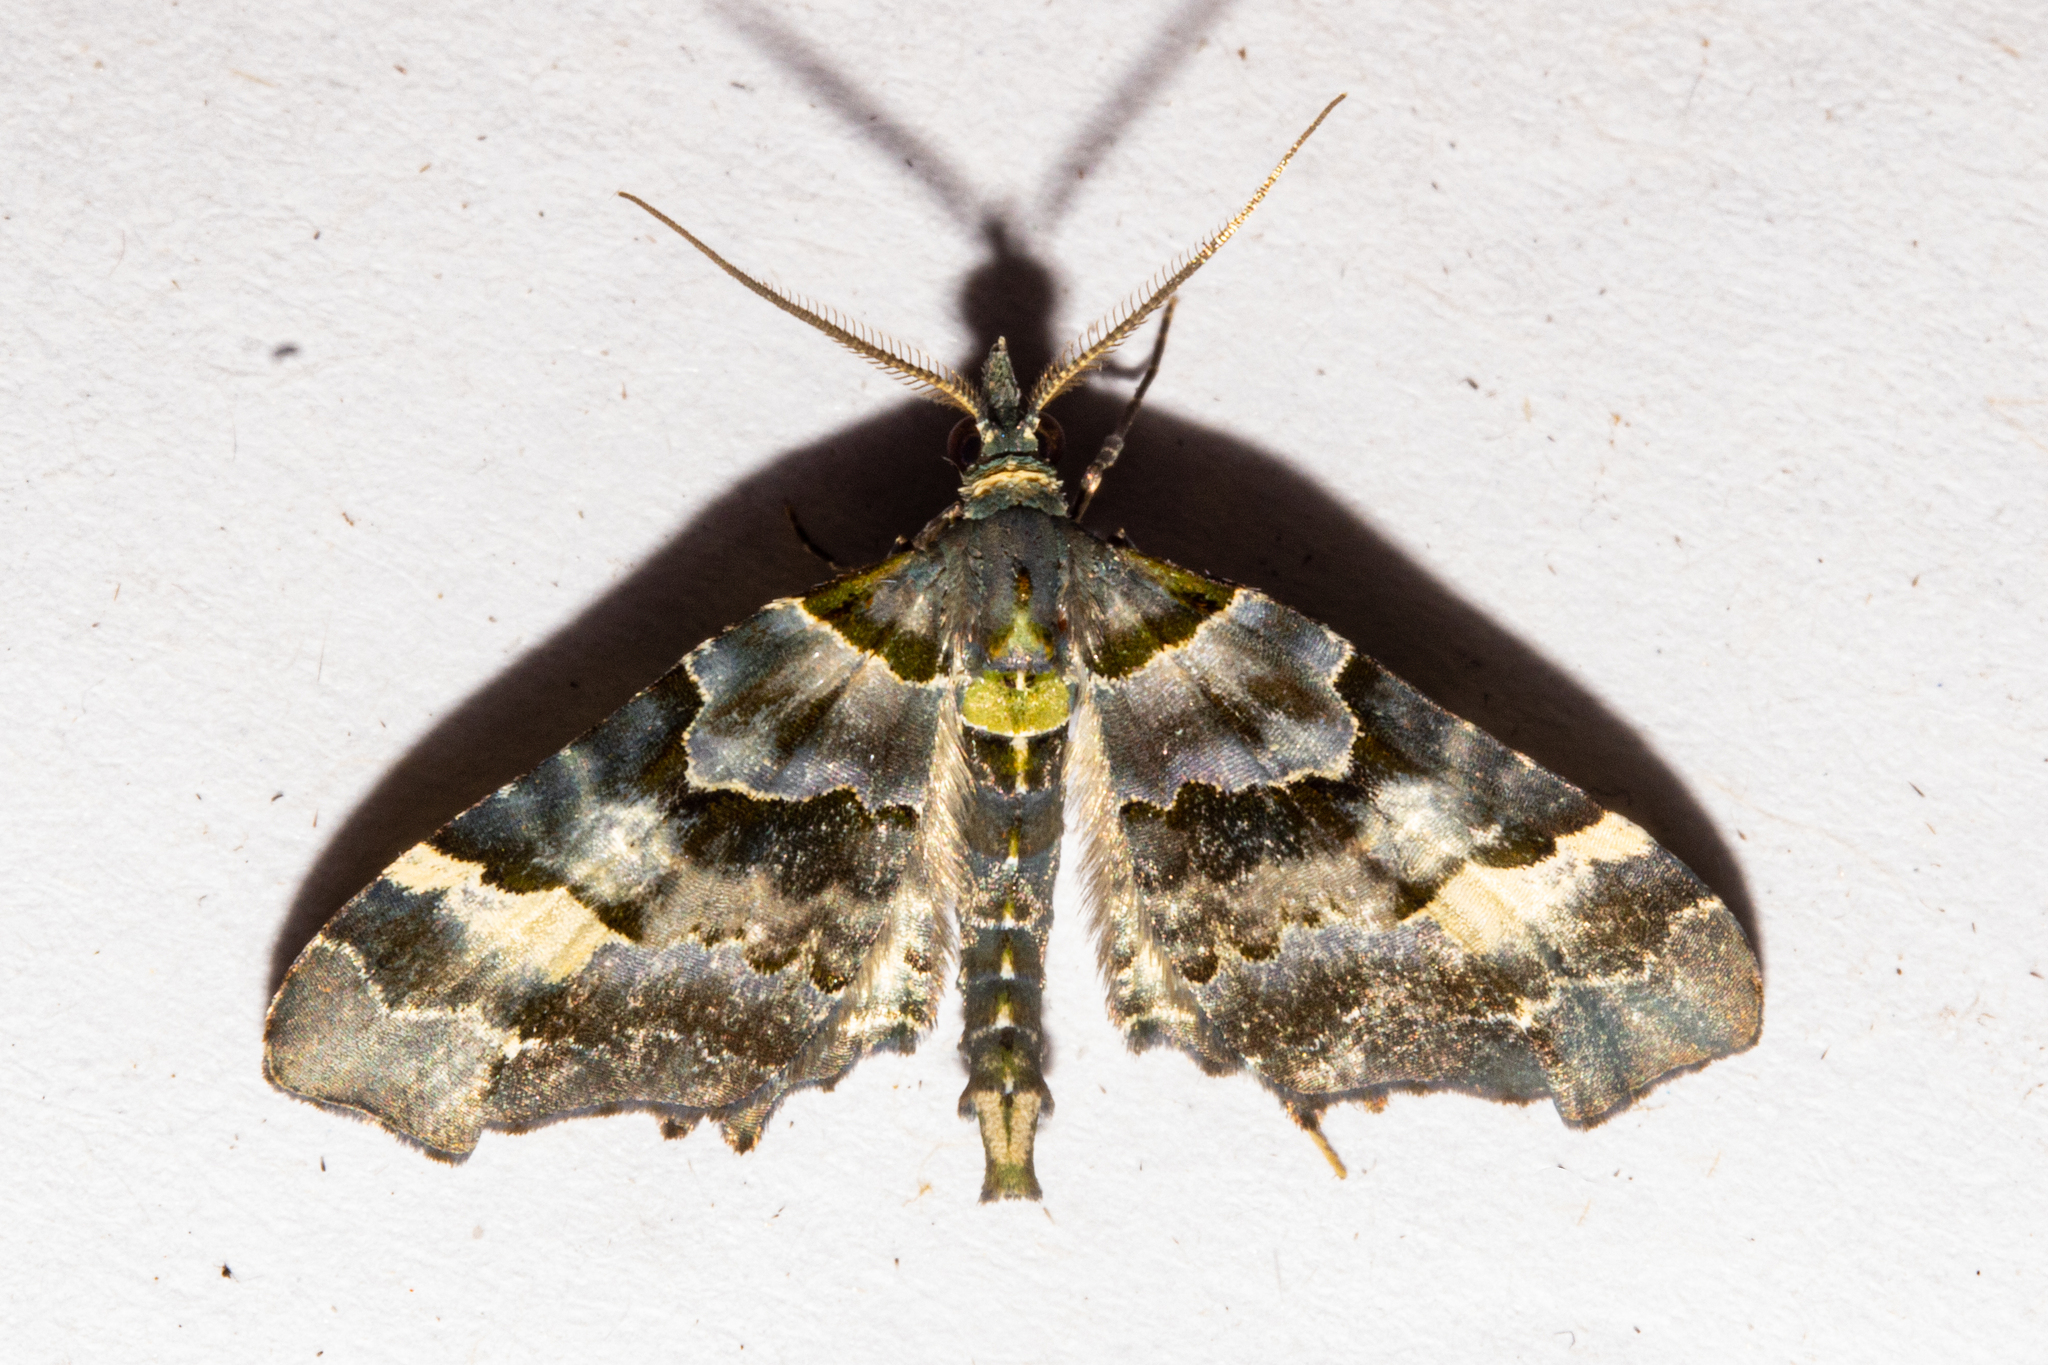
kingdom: Animalia
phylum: Arthropoda
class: Insecta
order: Lepidoptera
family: Geometridae
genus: Elvia
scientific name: Elvia glaucata
